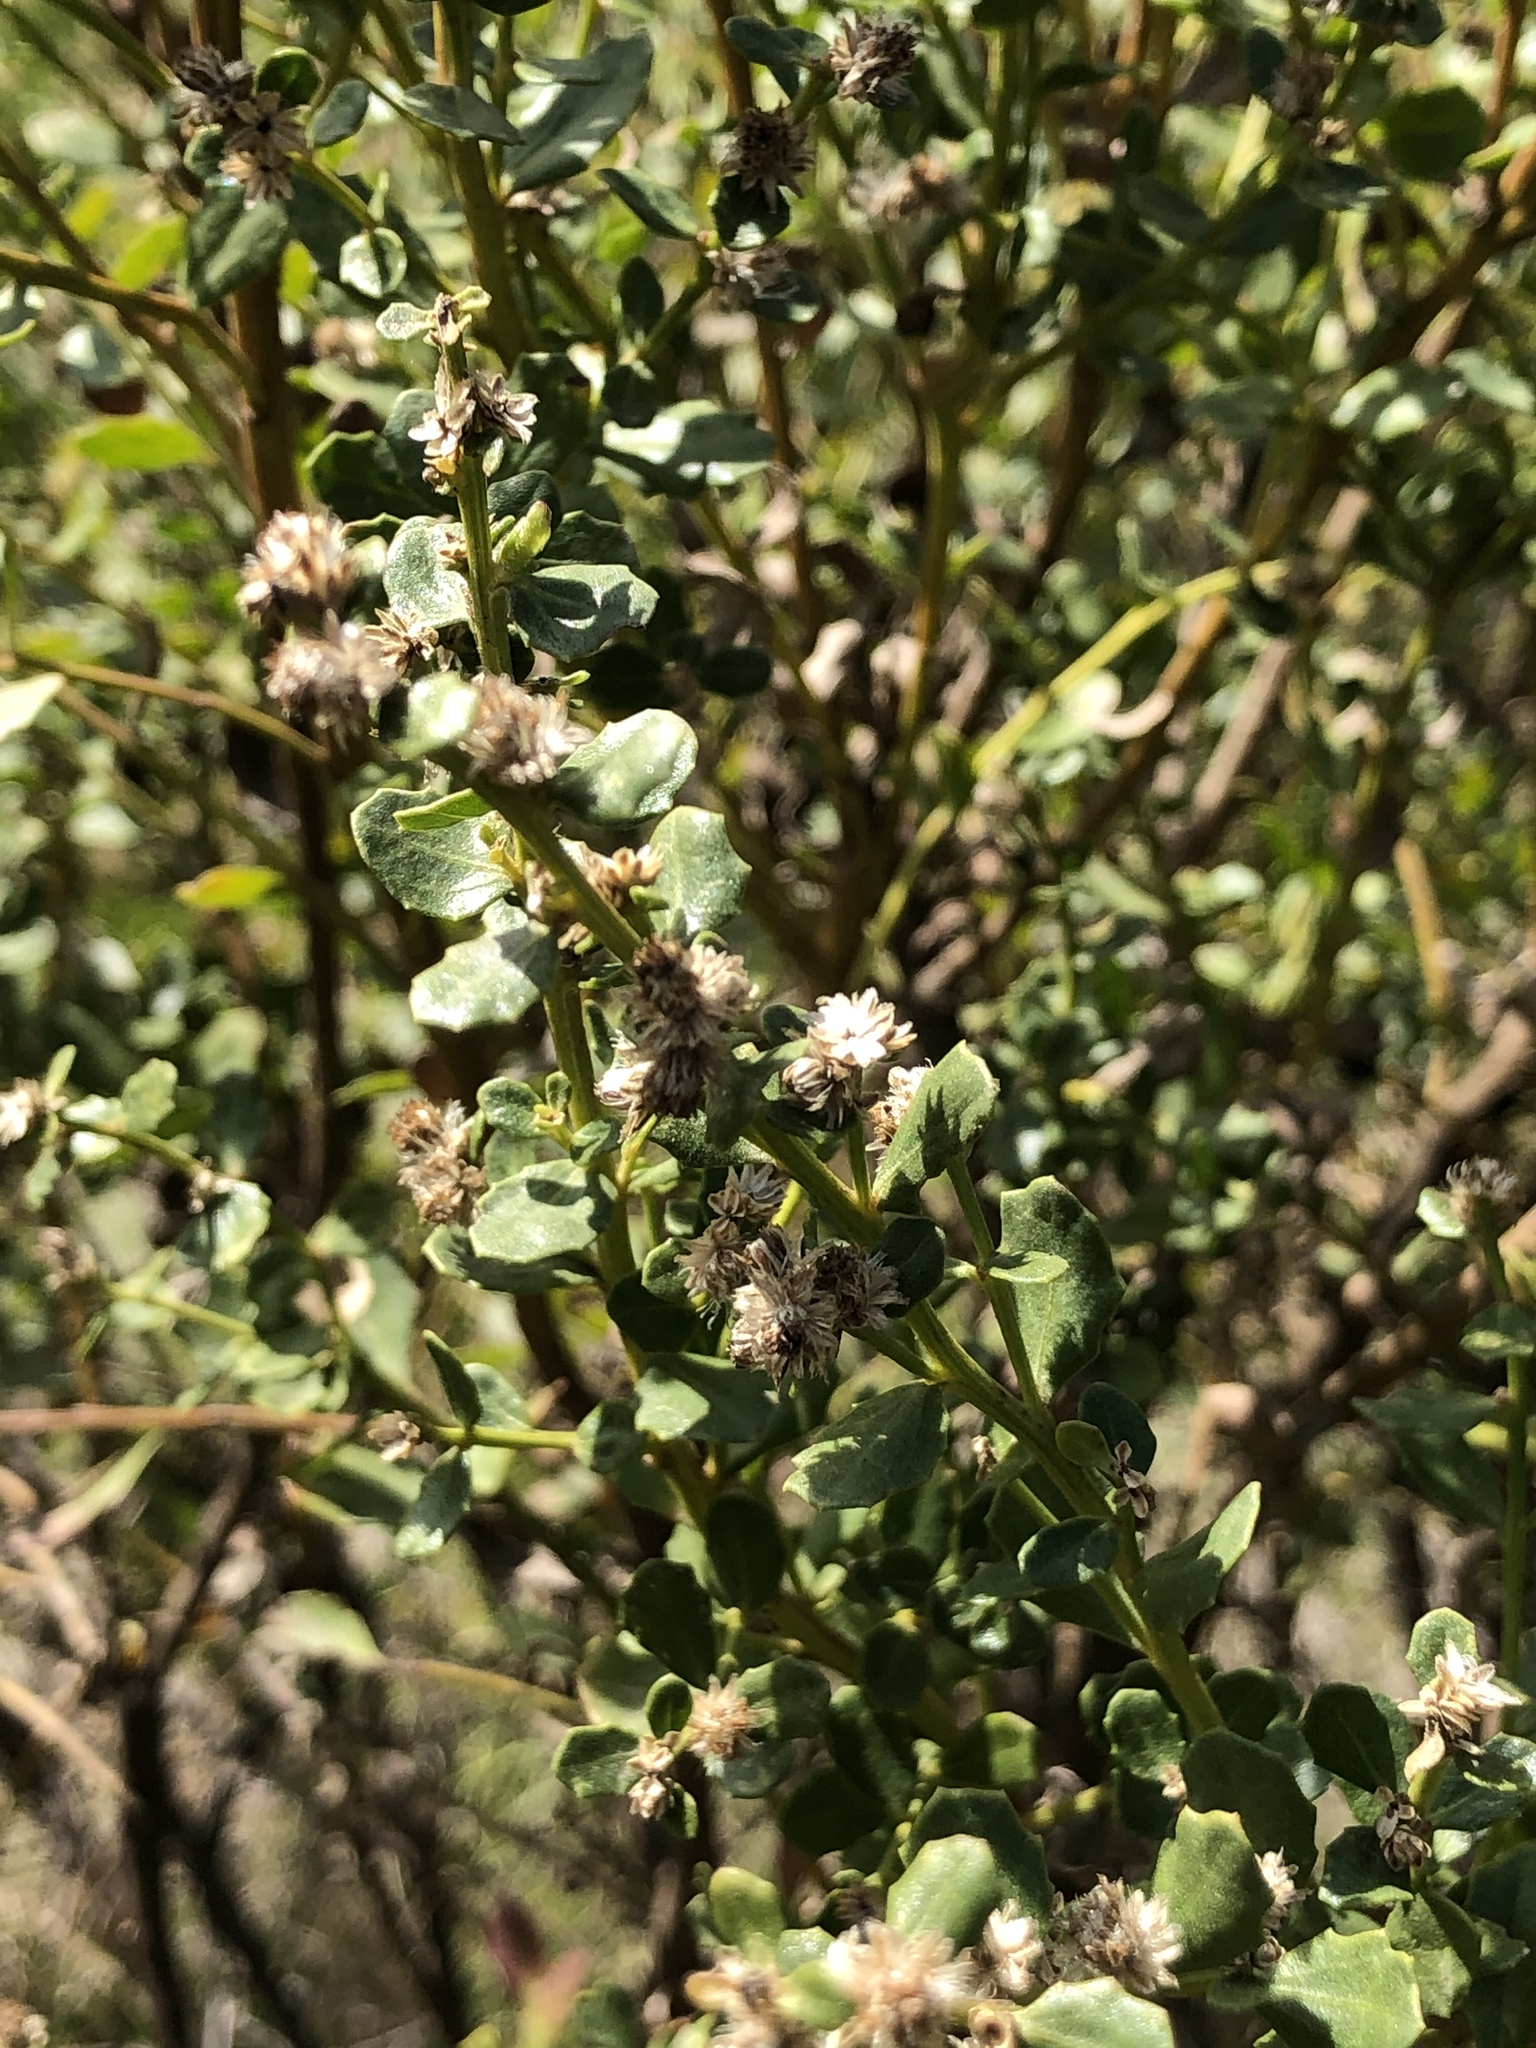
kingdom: Plantae
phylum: Tracheophyta
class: Magnoliopsida
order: Asterales
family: Asteraceae
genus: Baccharis
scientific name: Baccharis pilularis
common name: Coyotebrush
